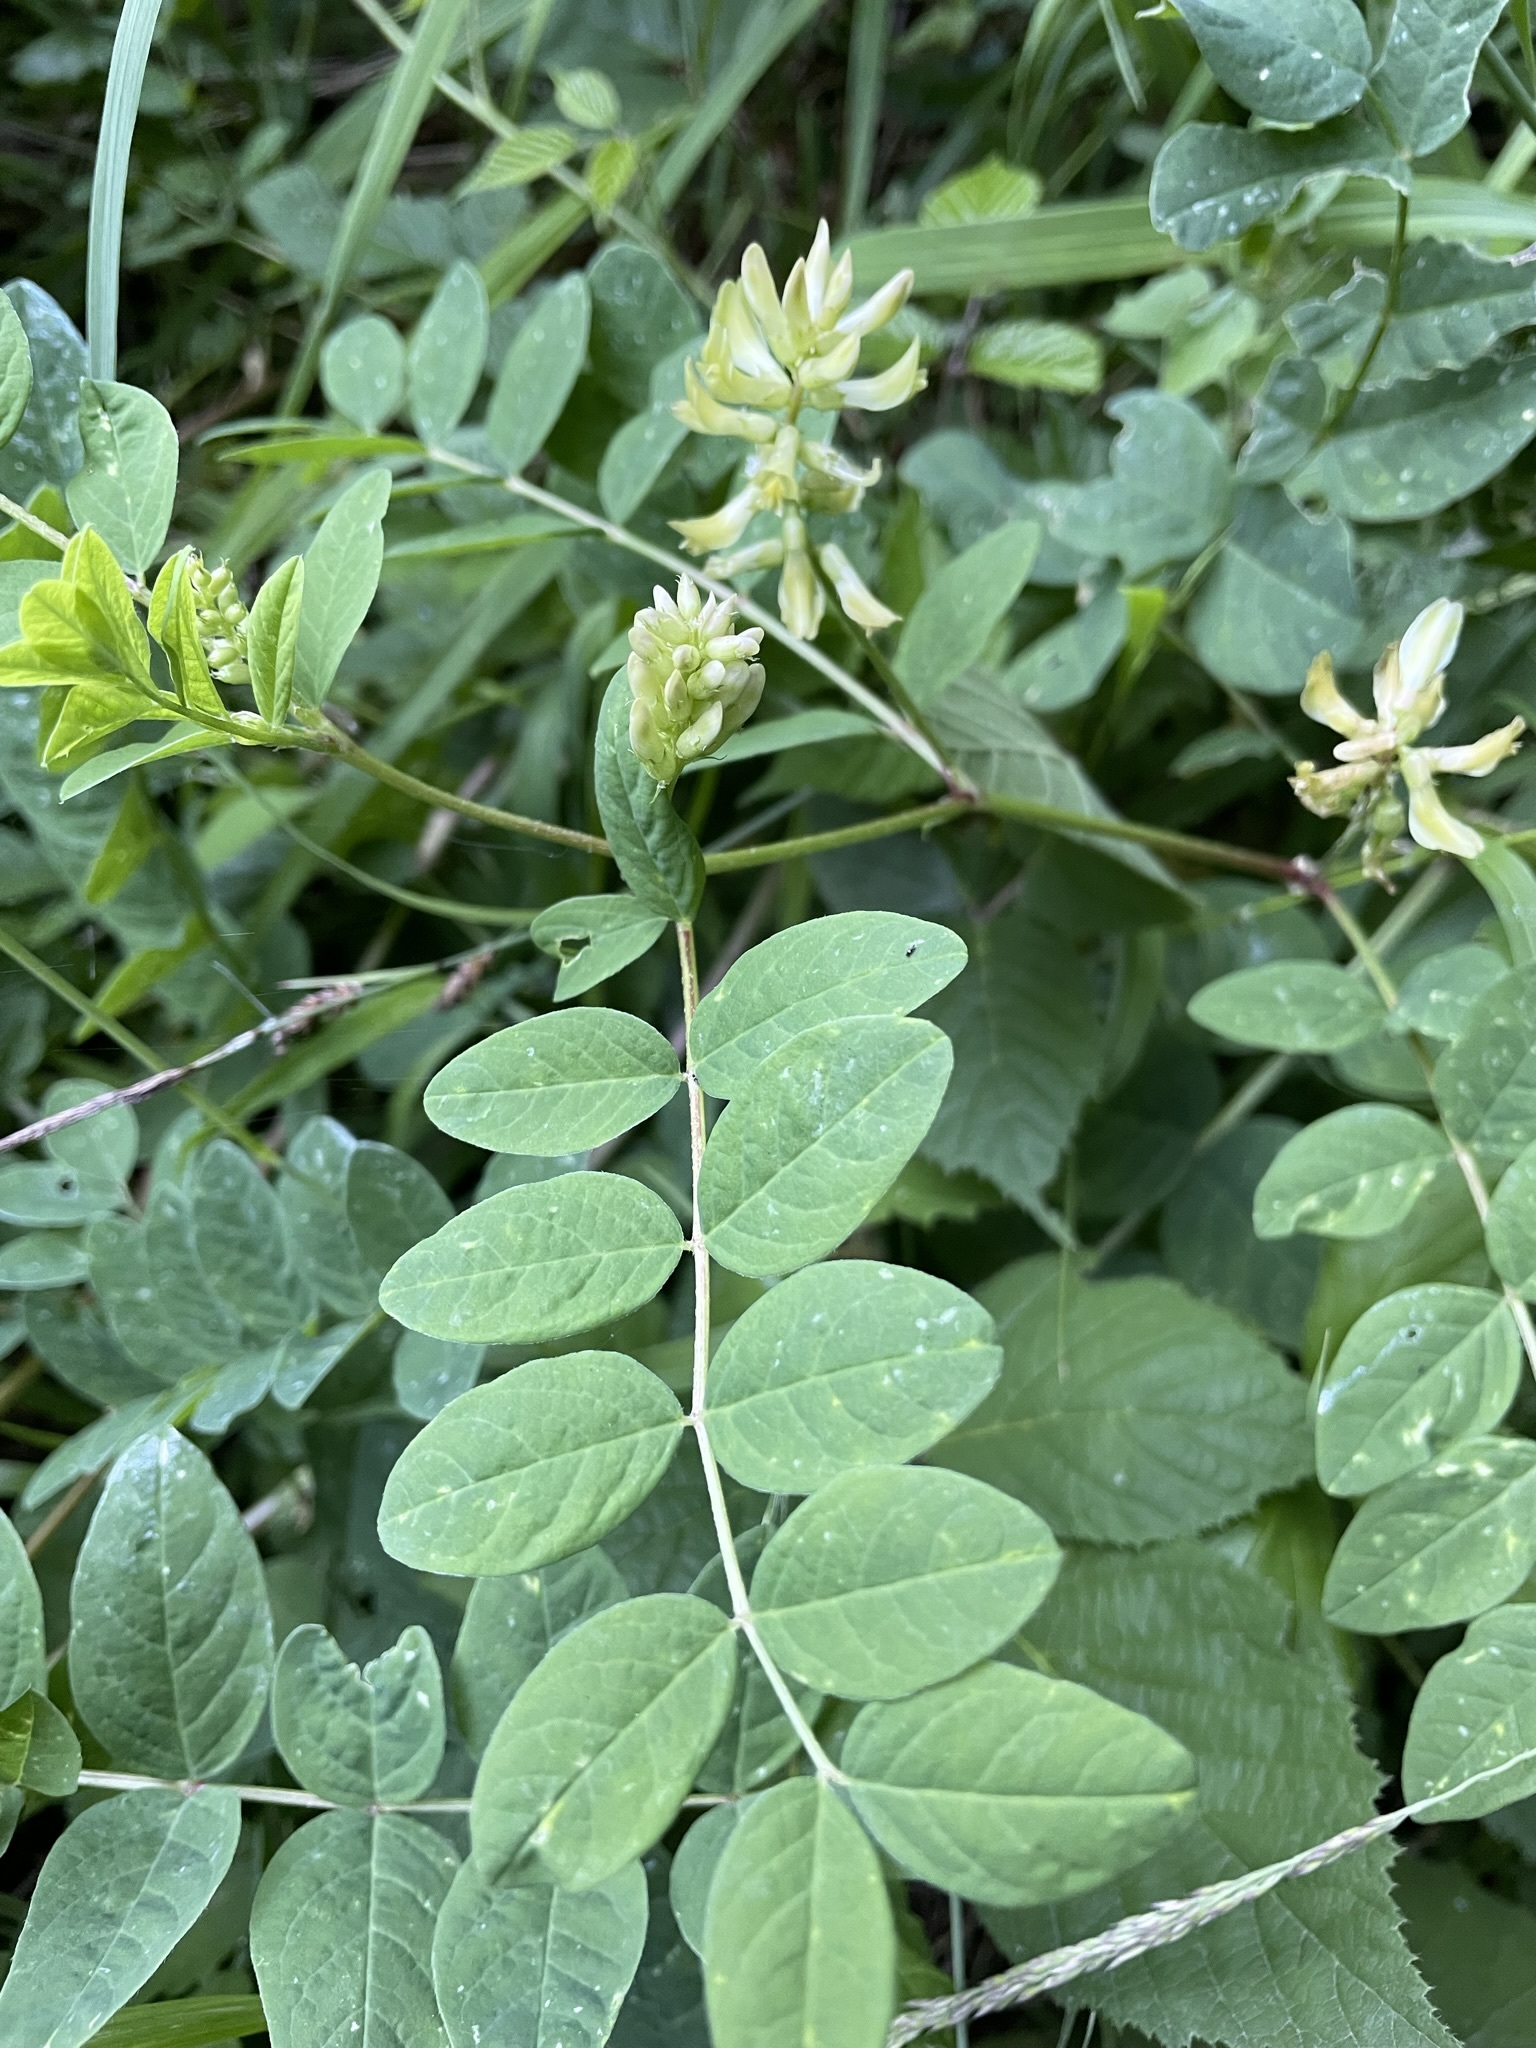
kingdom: Plantae
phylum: Tracheophyta
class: Magnoliopsida
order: Fabales
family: Fabaceae
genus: Astragalus
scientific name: Astragalus glycyphyllos
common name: Wild liquorice
